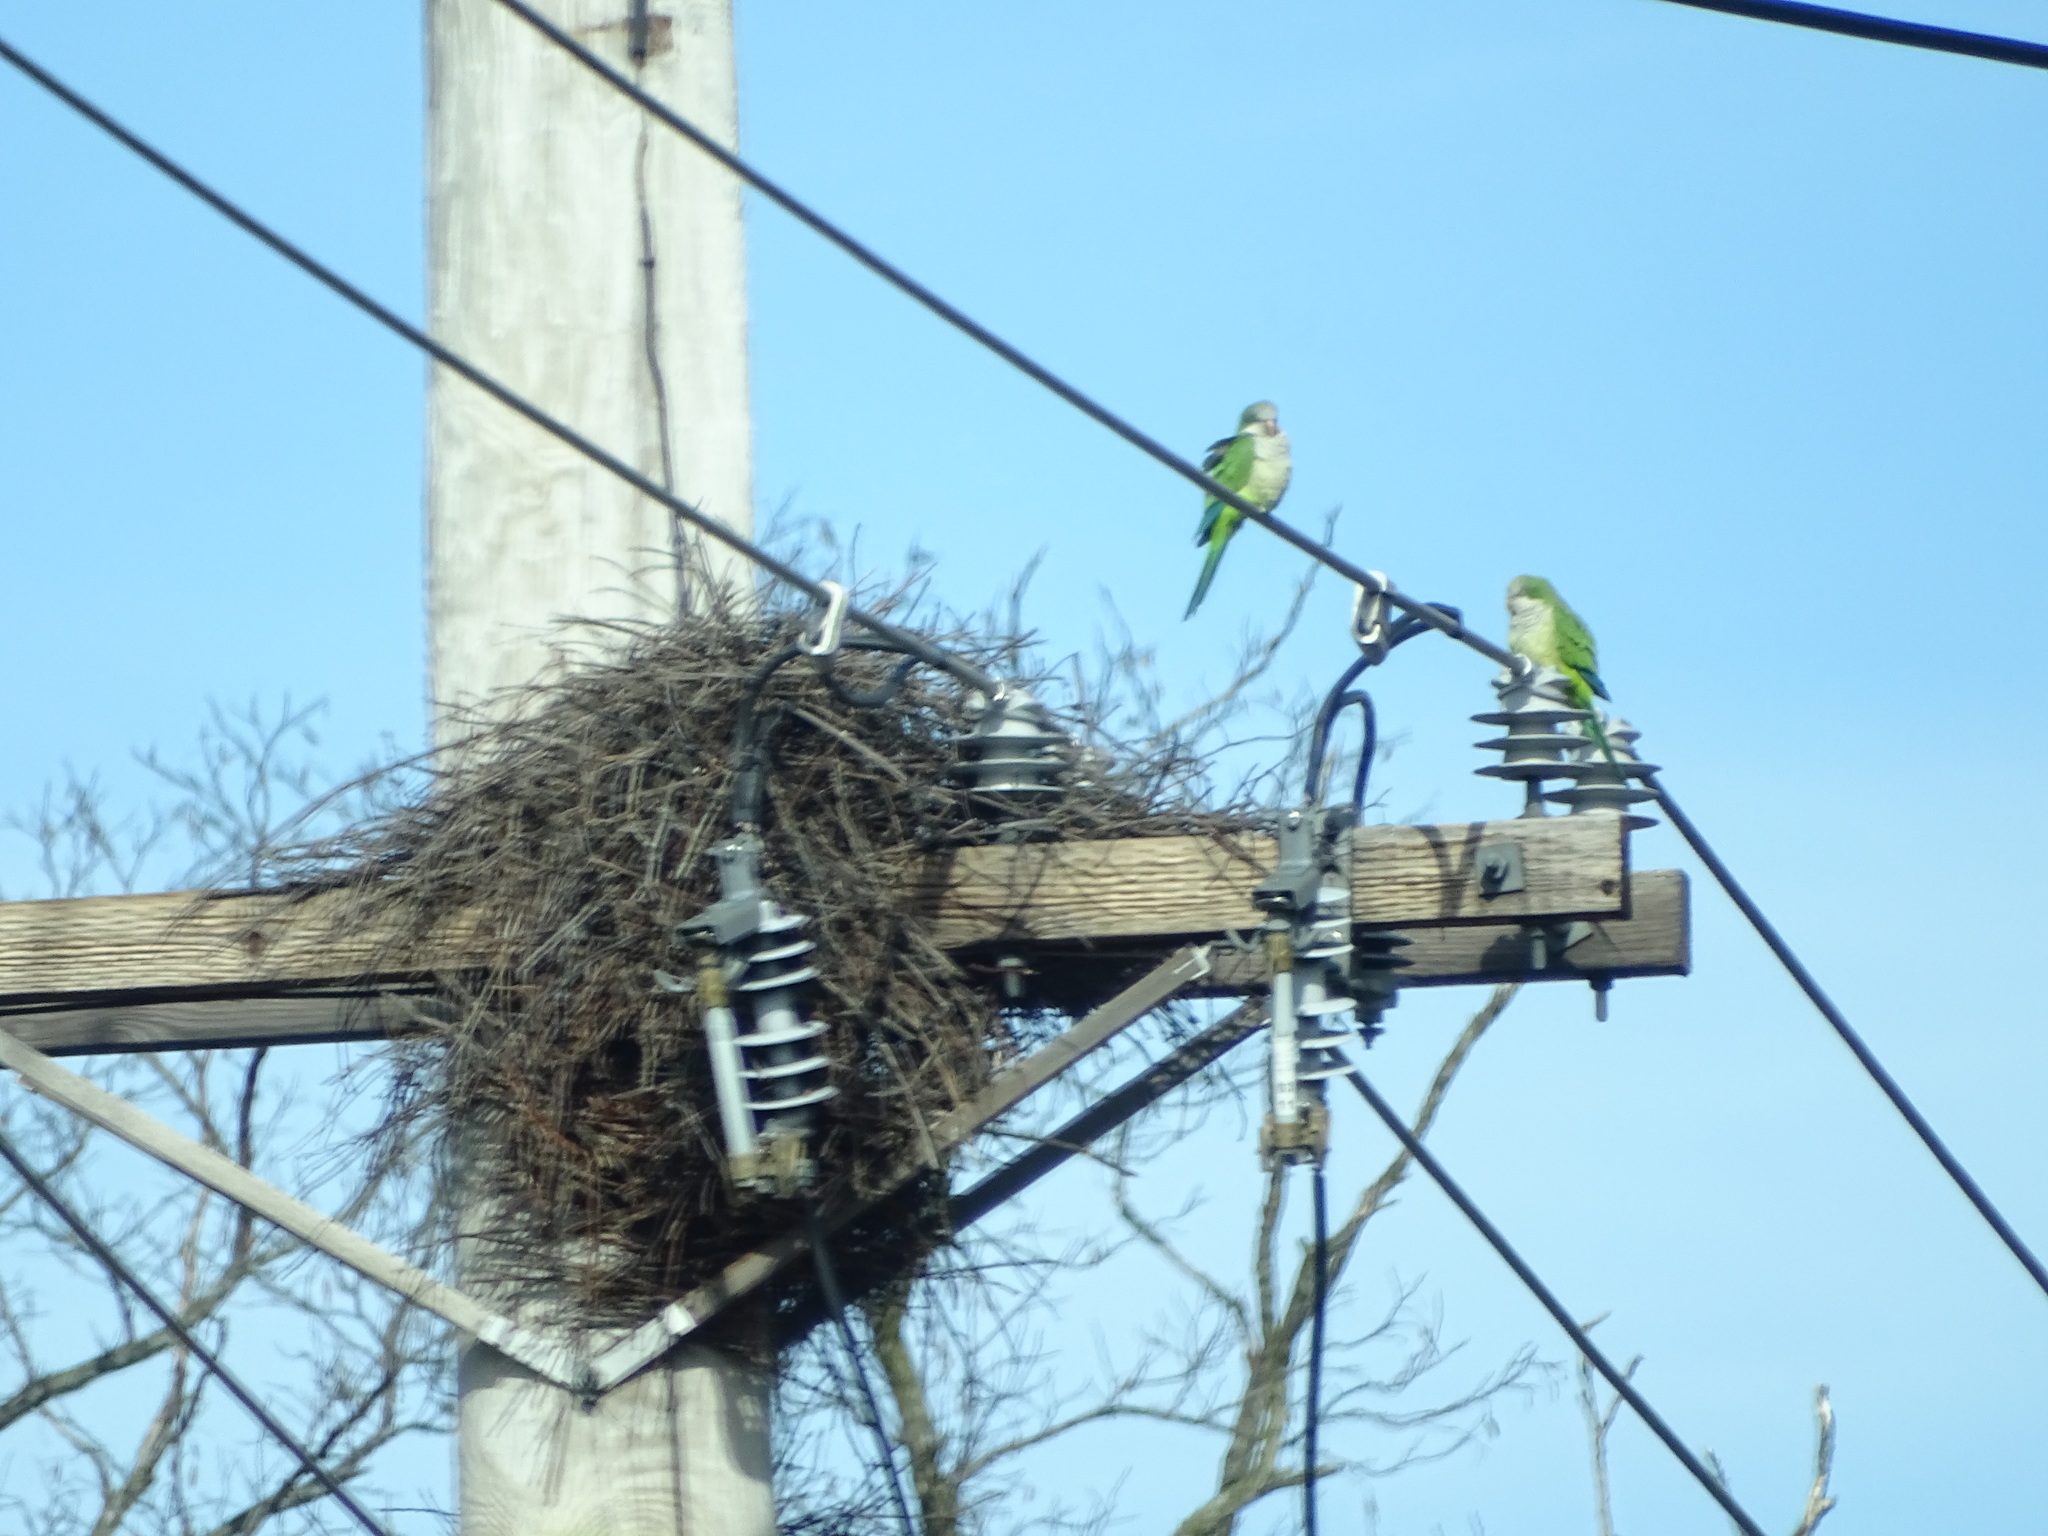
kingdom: Animalia
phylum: Chordata
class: Aves
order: Psittaciformes
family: Psittacidae
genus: Myiopsitta
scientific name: Myiopsitta monachus
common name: Monk parakeet
